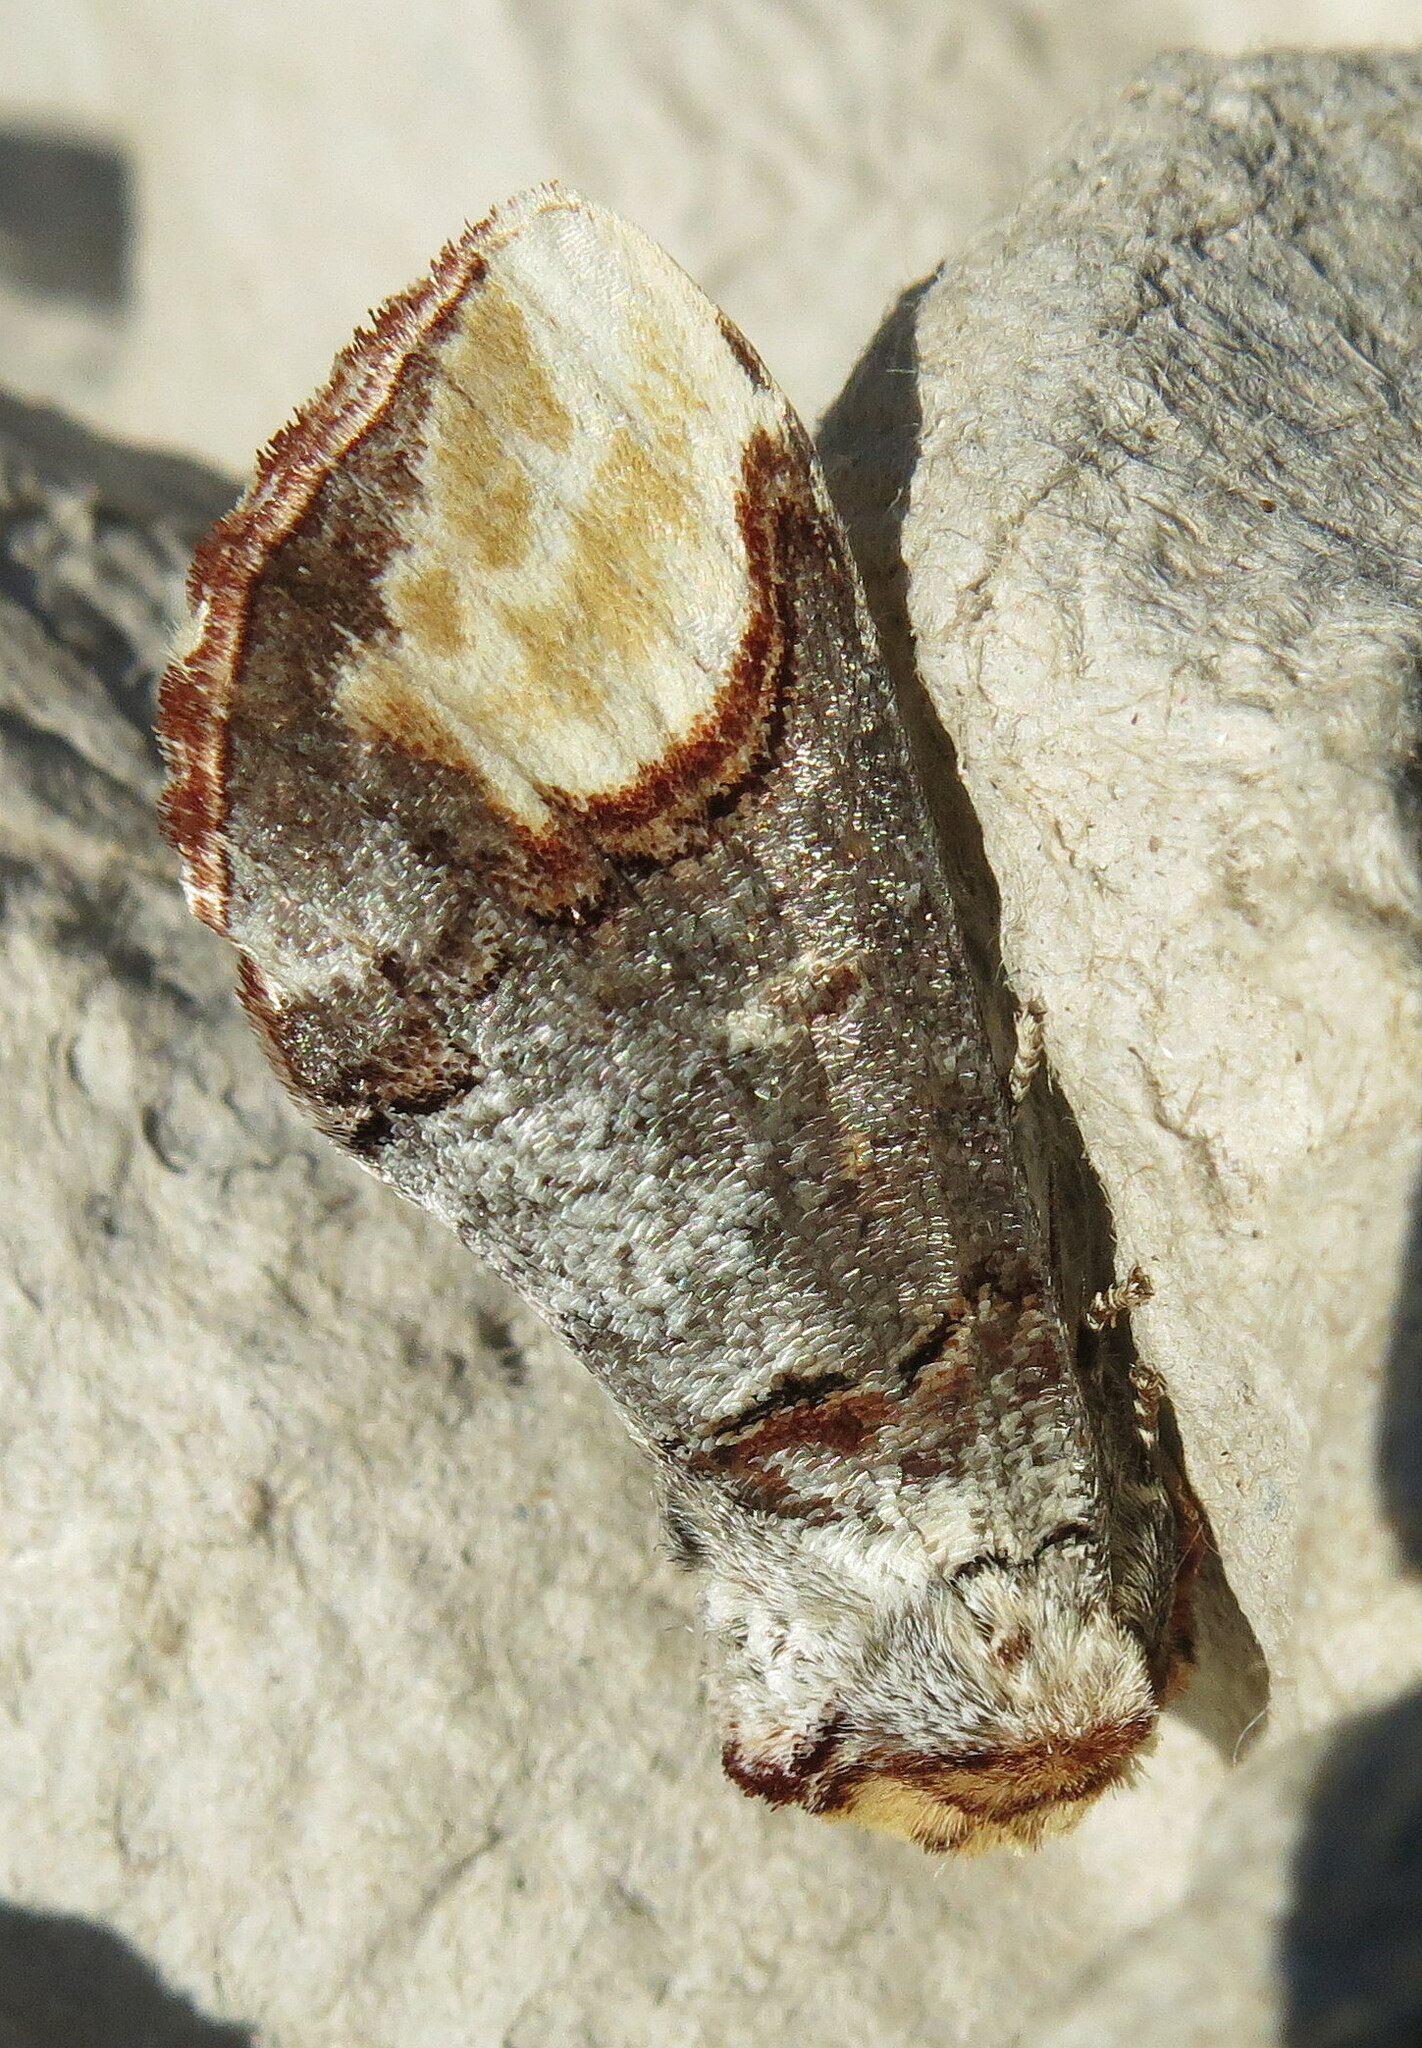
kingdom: Animalia
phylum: Arthropoda
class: Insecta
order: Lepidoptera
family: Notodontidae
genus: Phalera
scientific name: Phalera bucephala
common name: Buff-tip
